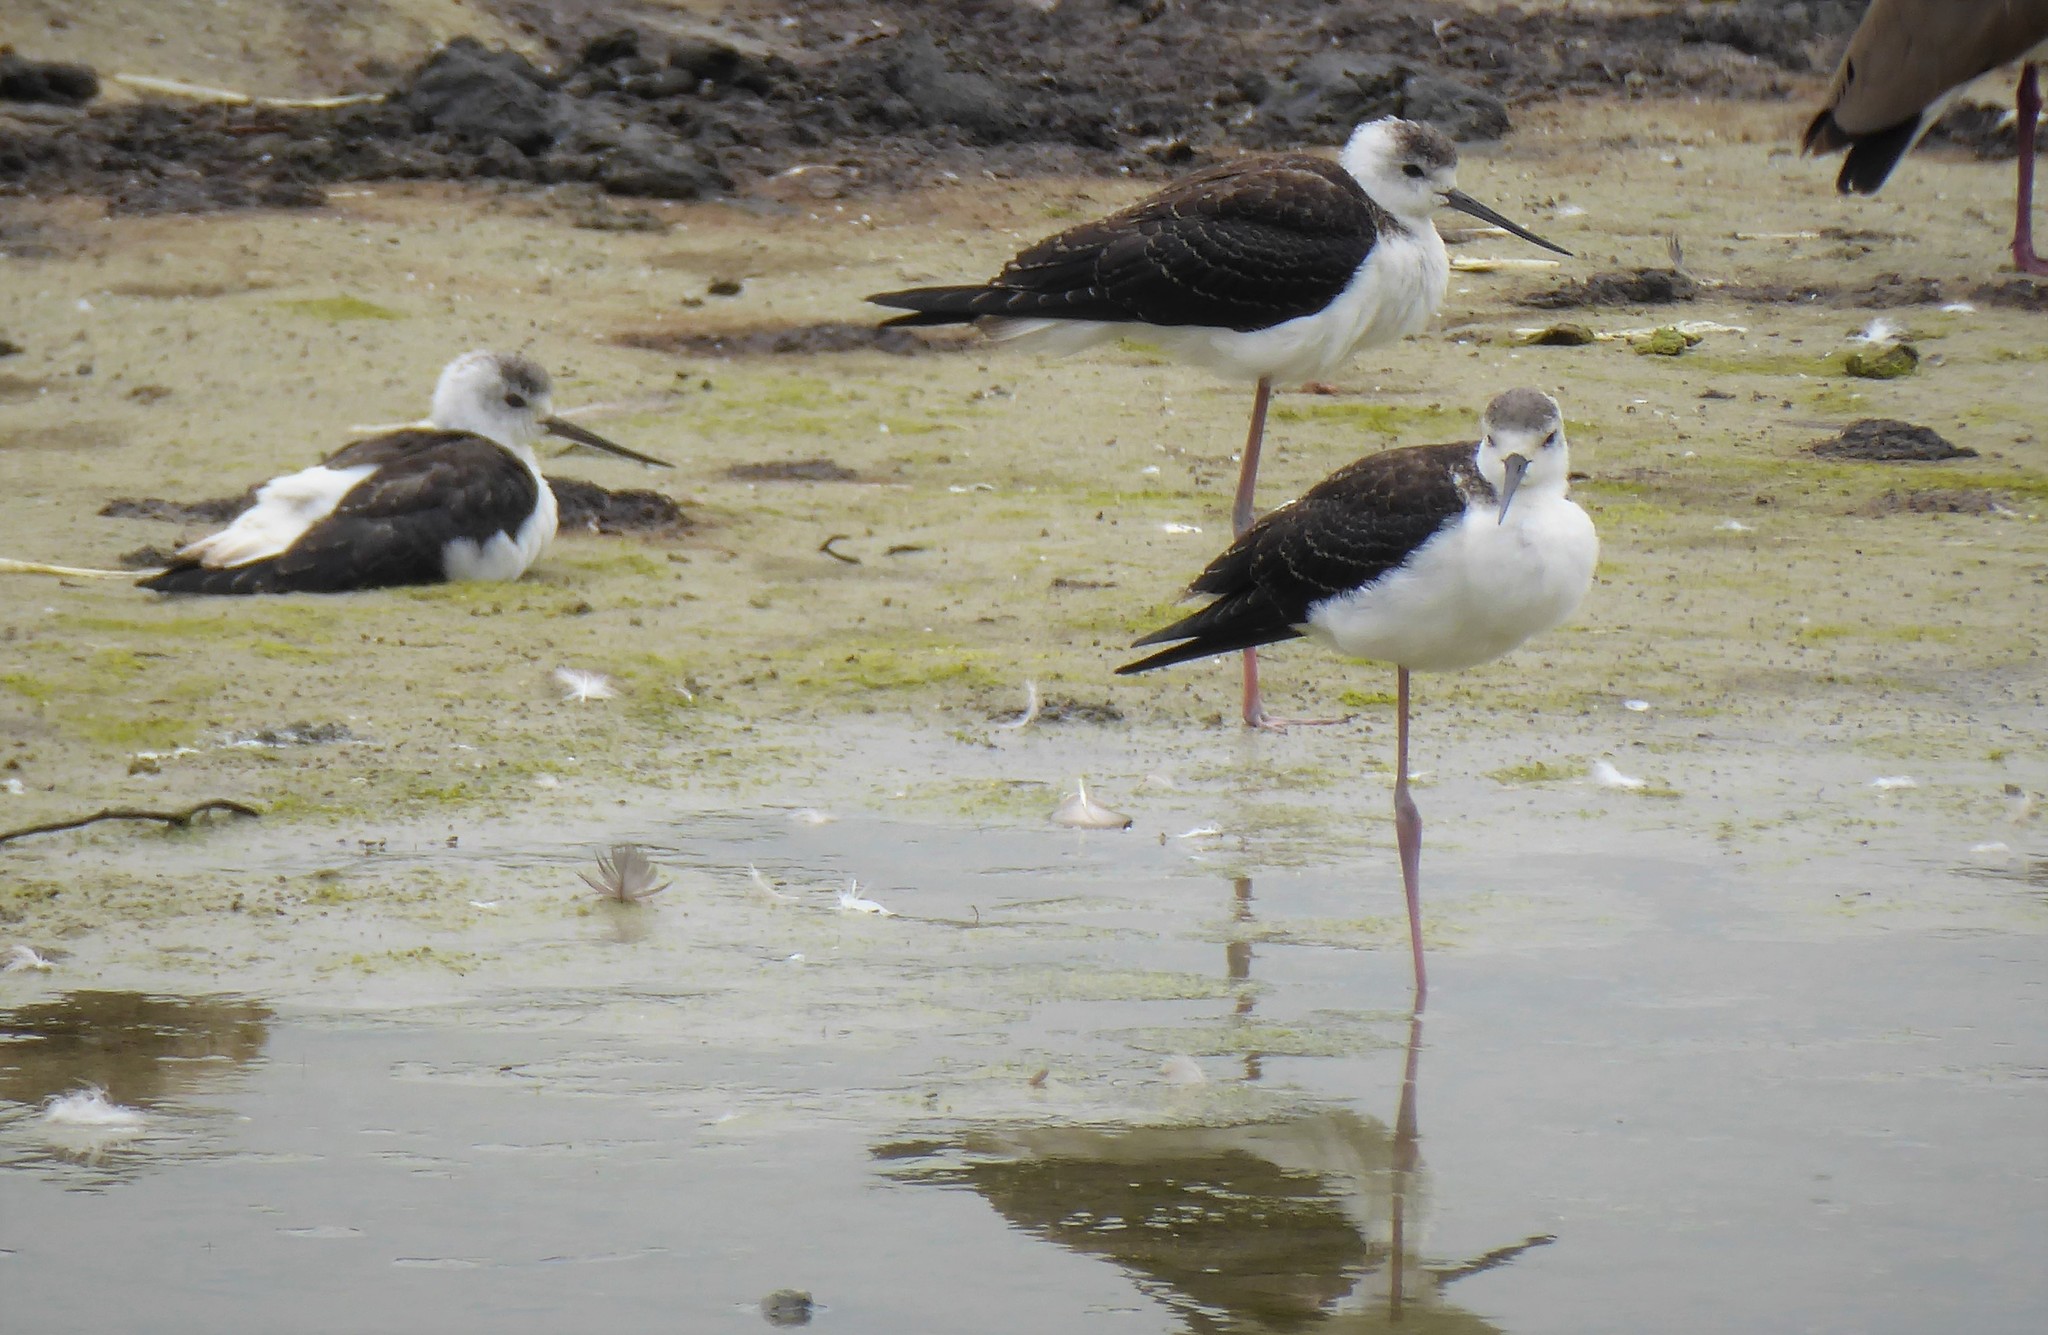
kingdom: Animalia
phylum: Chordata
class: Aves
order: Charadriiformes
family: Recurvirostridae
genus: Himantopus
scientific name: Himantopus leucocephalus
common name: White-headed stilt
